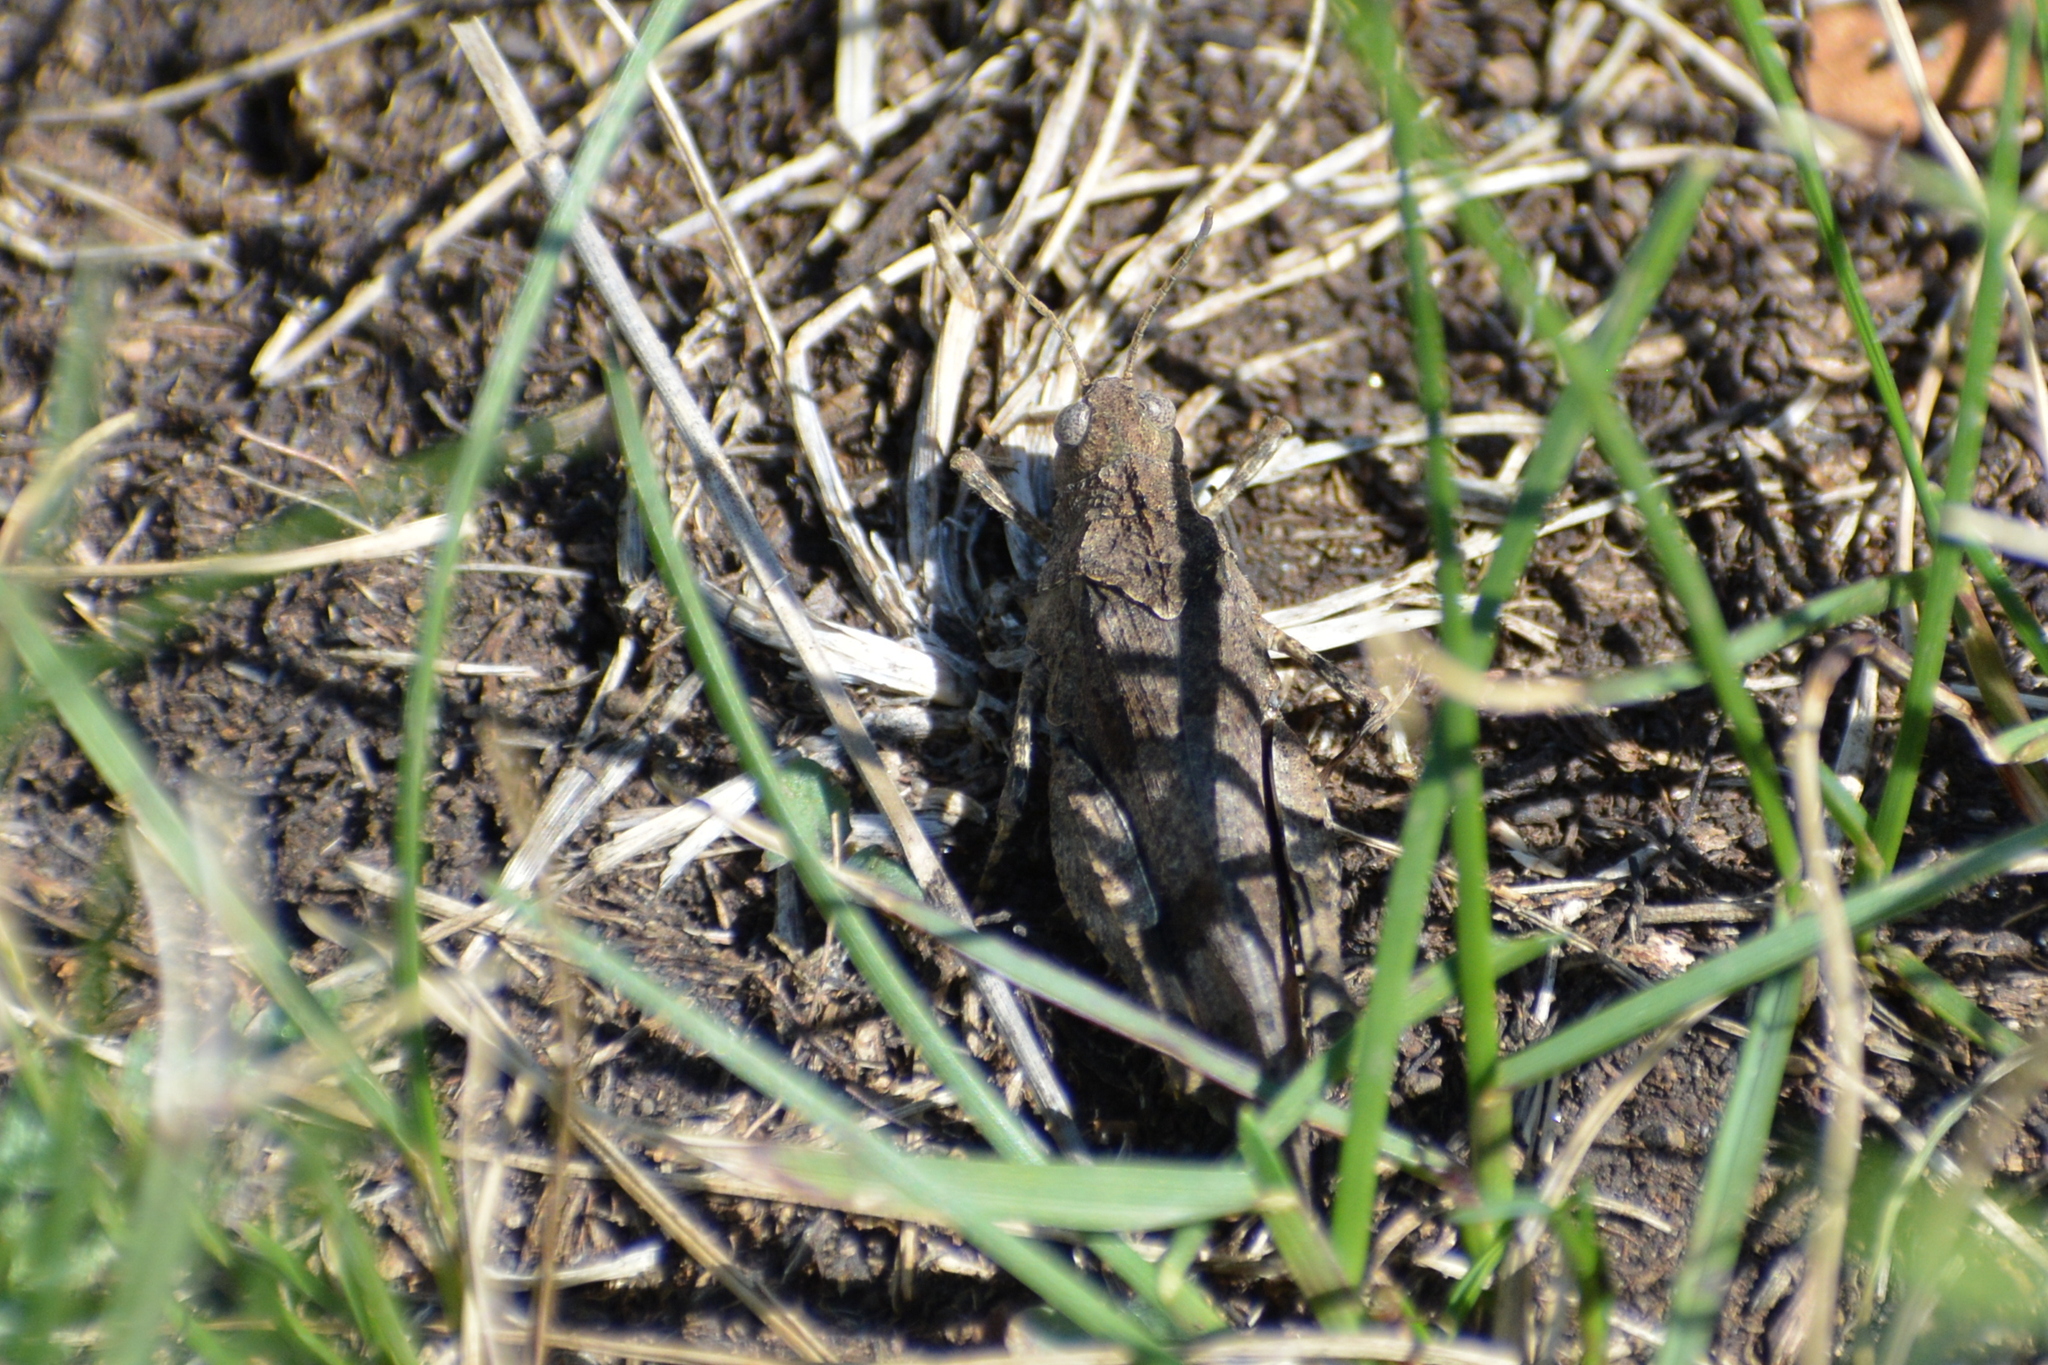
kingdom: Animalia
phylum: Arthropoda
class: Insecta
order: Orthoptera
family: Acrididae
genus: Oedipoda
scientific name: Oedipoda caerulescens
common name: Blue-winged grasshopper
